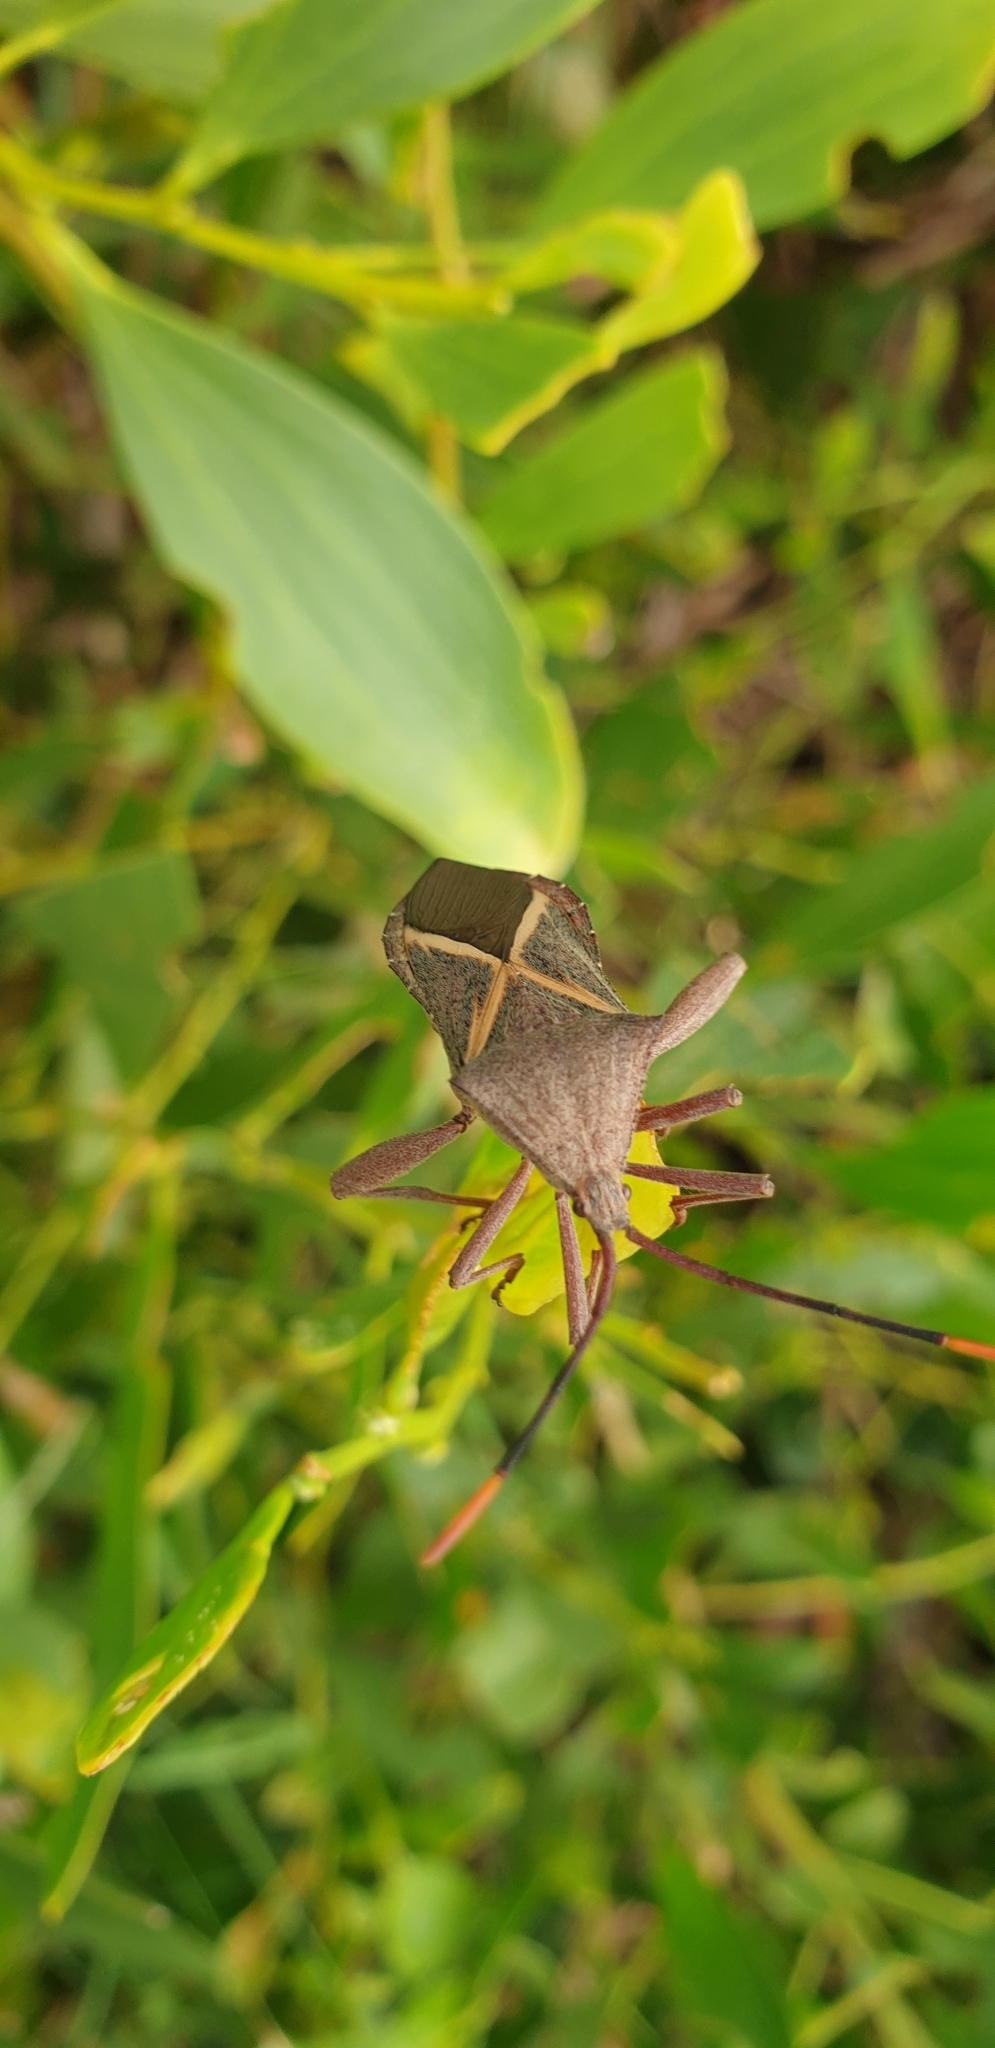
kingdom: Animalia
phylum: Arthropoda
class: Insecta
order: Hemiptera
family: Coreidae
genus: Mictis
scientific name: Mictis profana
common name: Crusader bug
